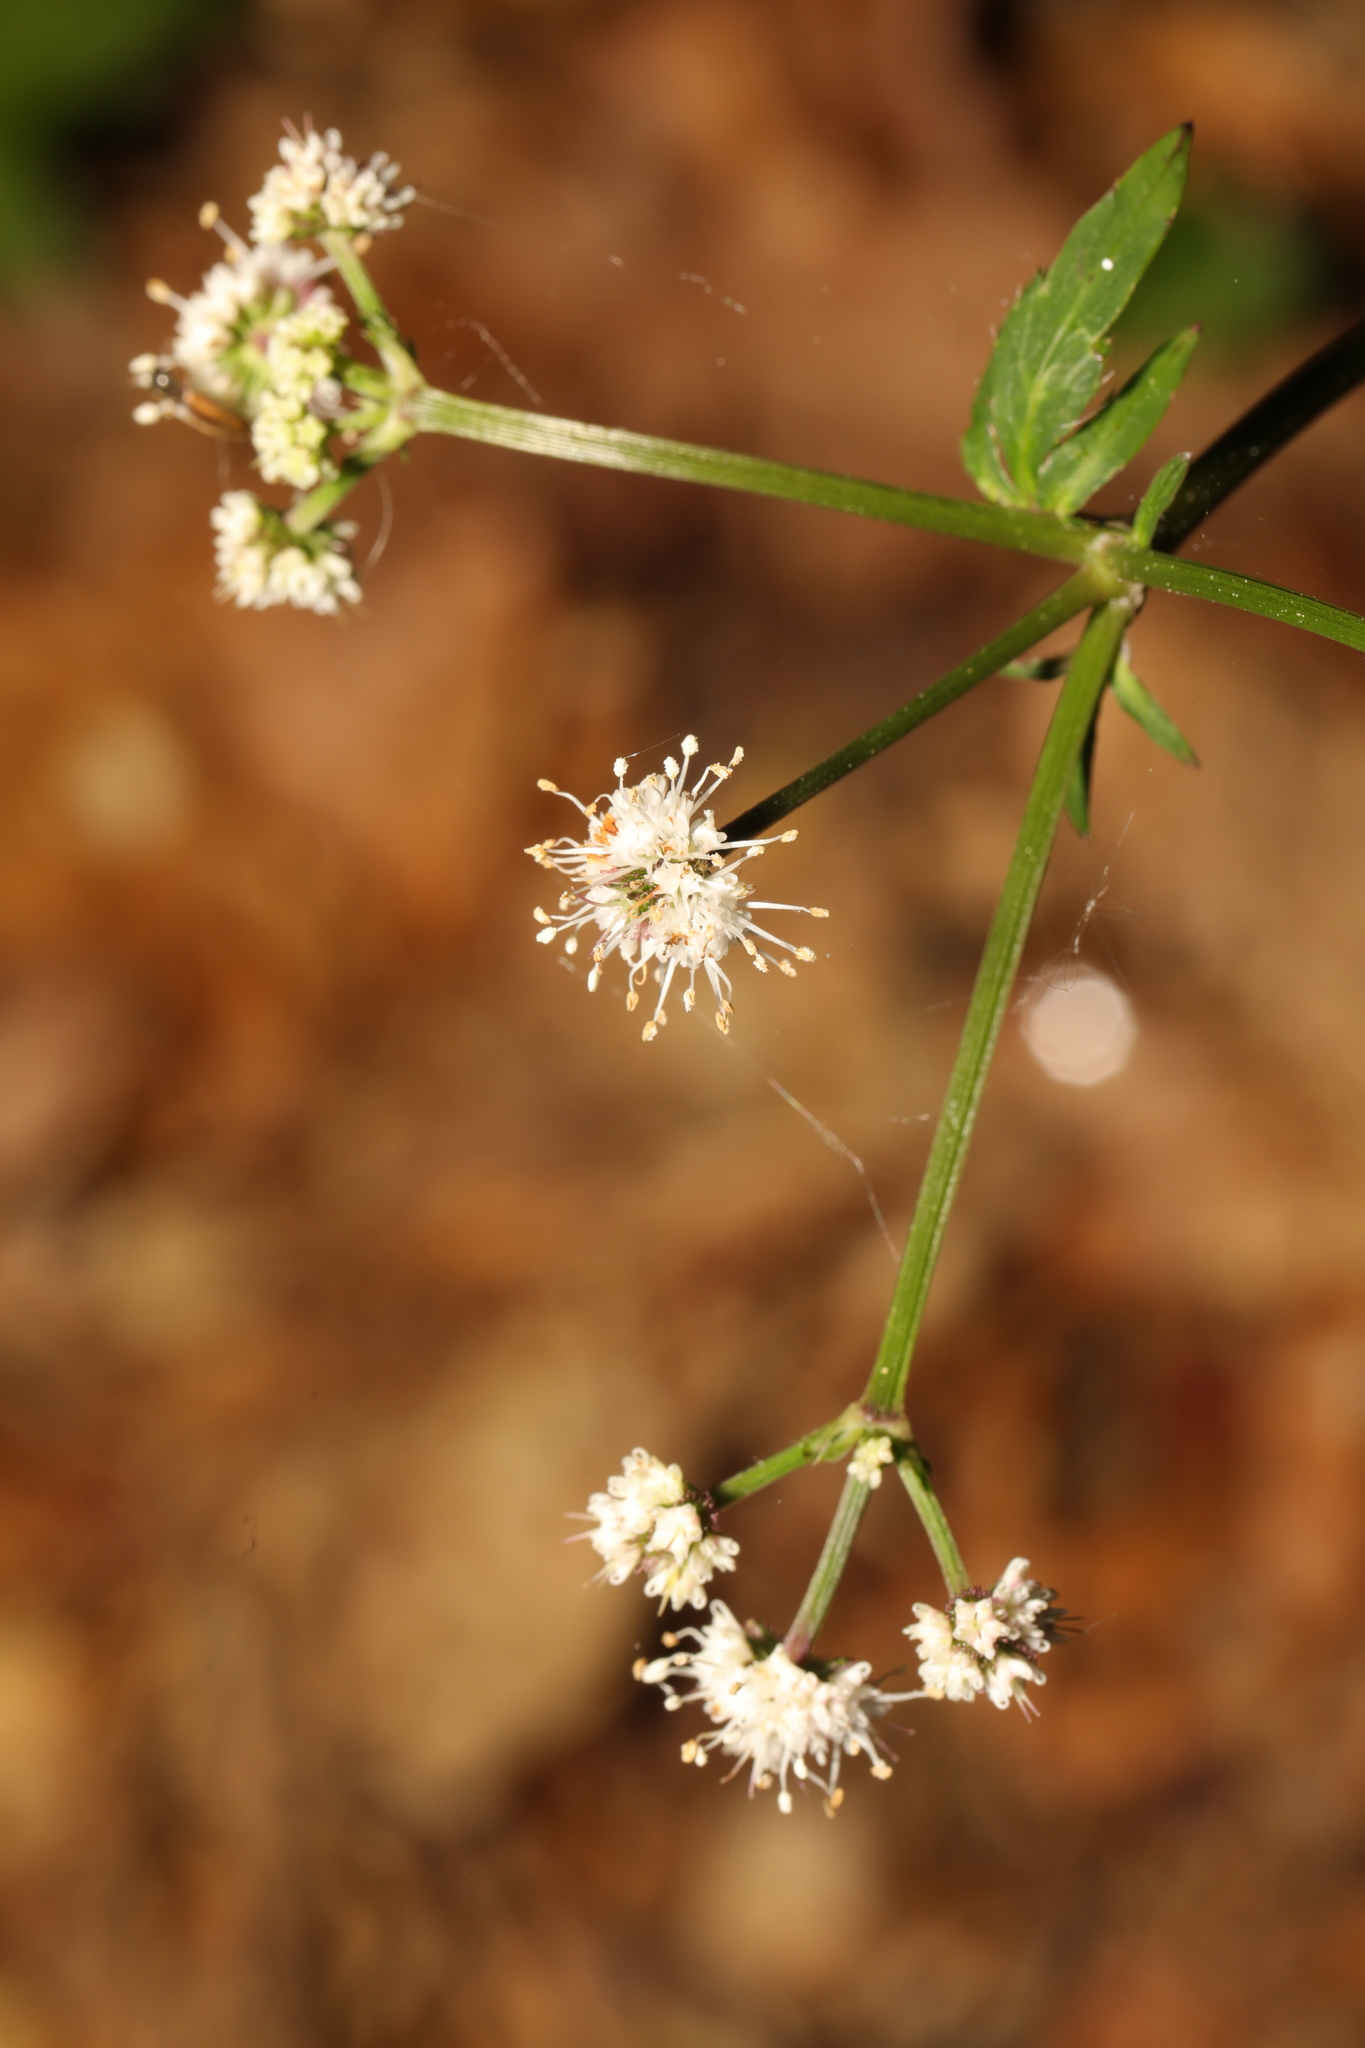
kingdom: Plantae
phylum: Tracheophyta
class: Magnoliopsida
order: Apiales
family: Apiaceae
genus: Sanicula
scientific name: Sanicula europaea
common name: Sanicle
